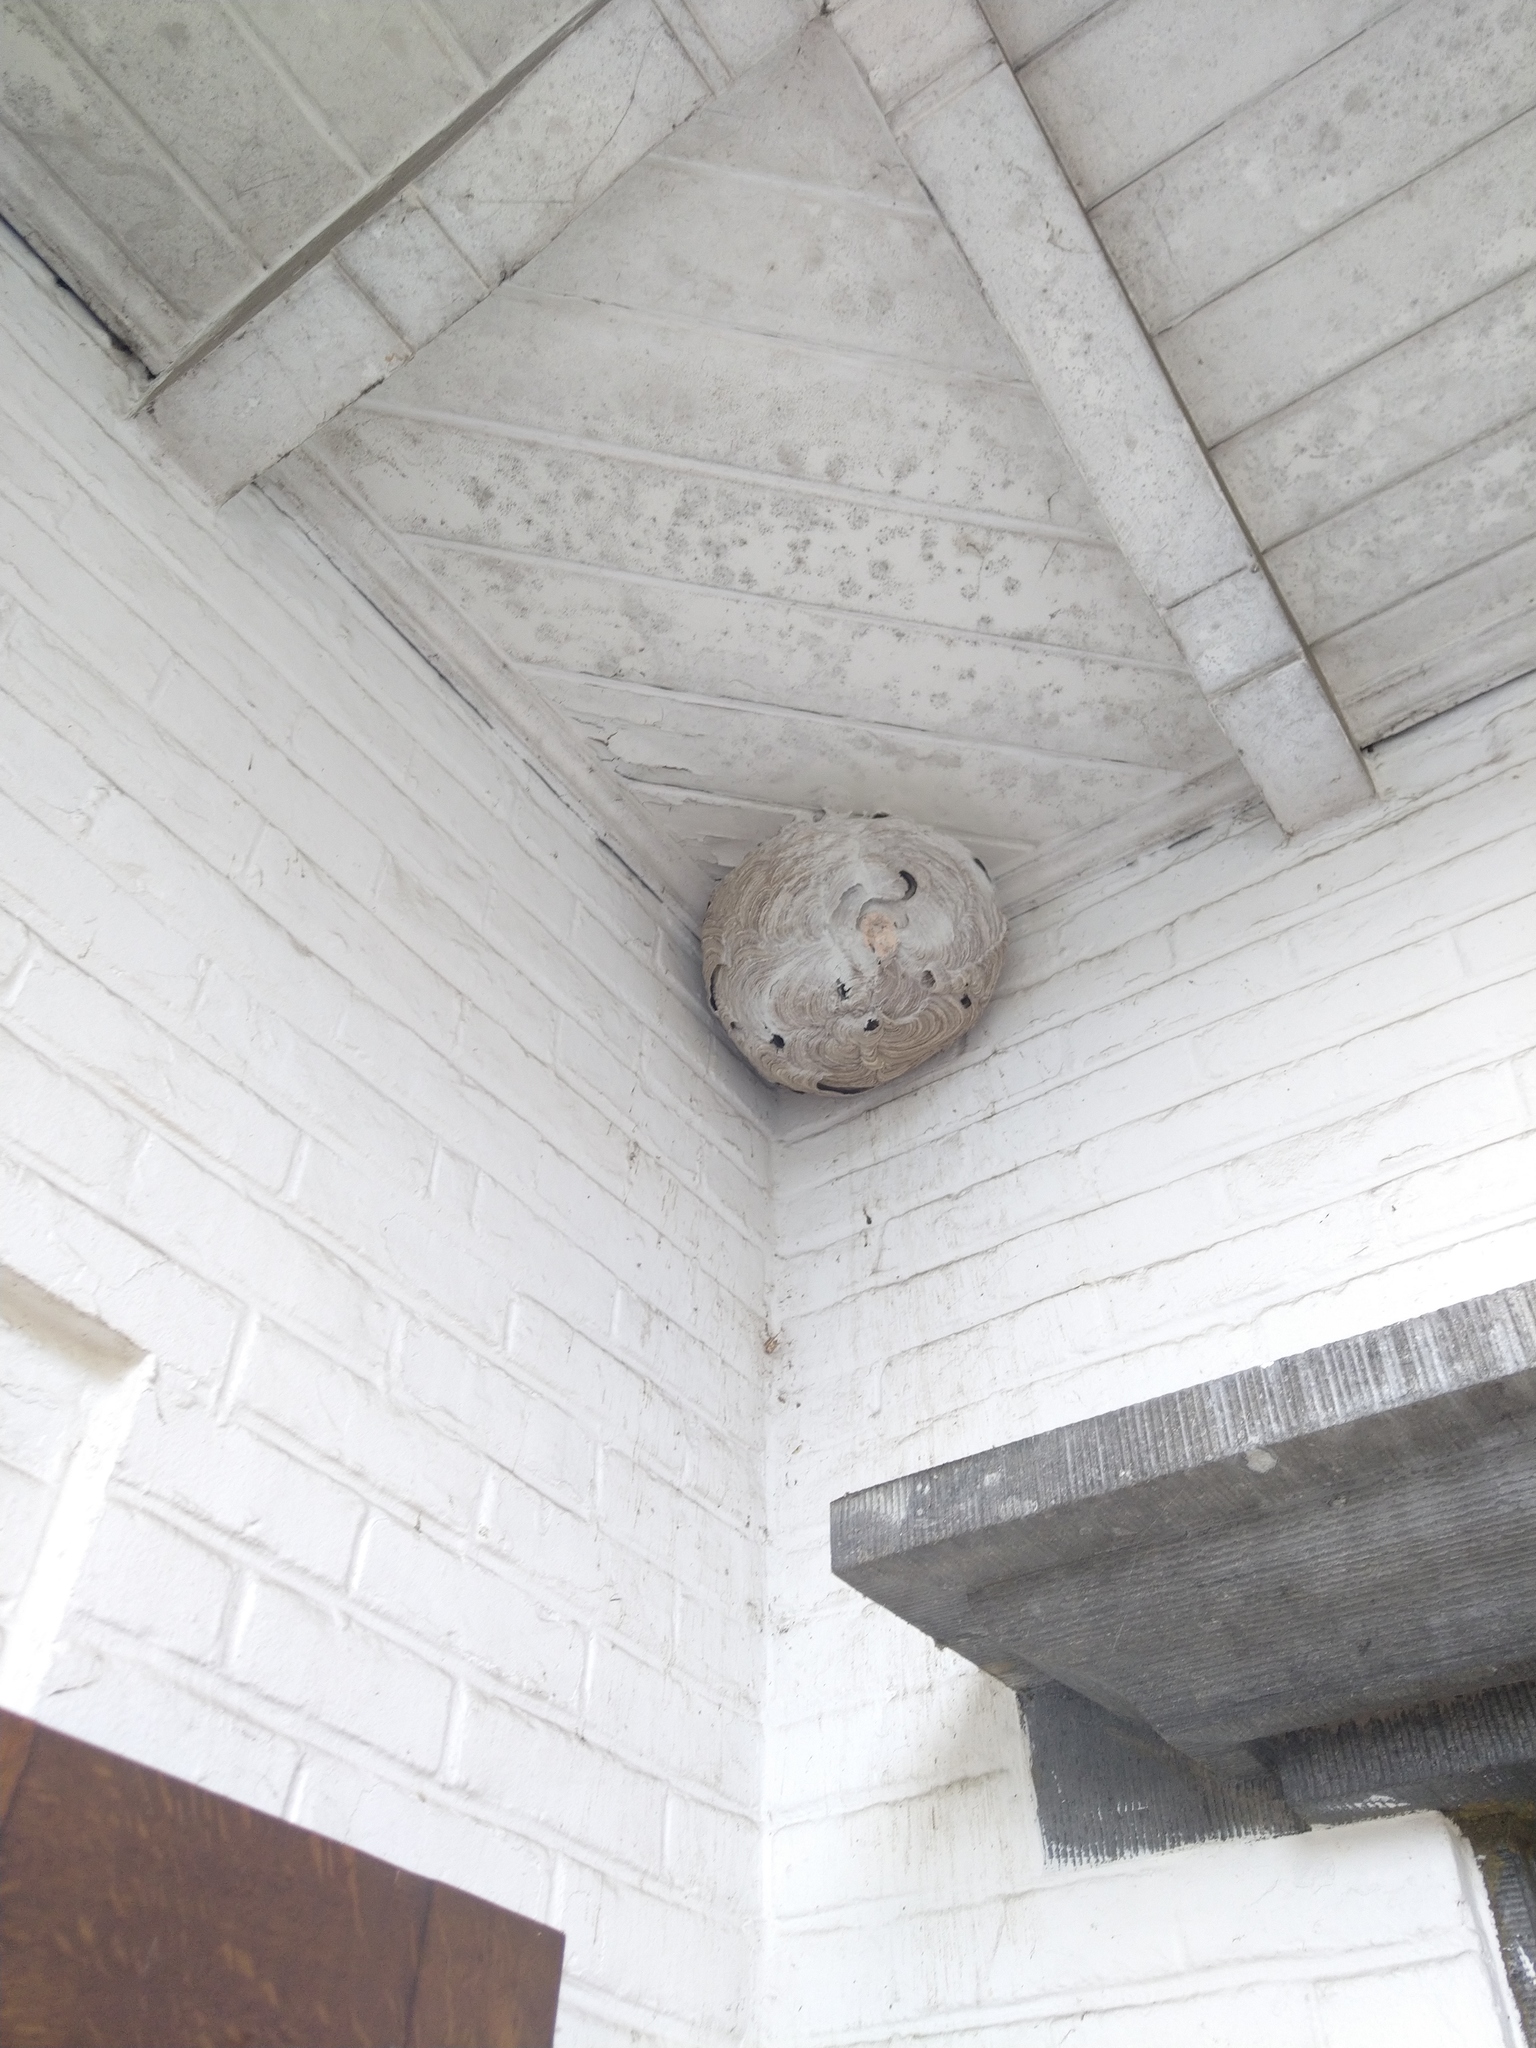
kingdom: Animalia
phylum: Arthropoda
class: Insecta
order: Hymenoptera
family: Vespidae
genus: Vespa
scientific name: Vespa velutina
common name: Asian hornet
